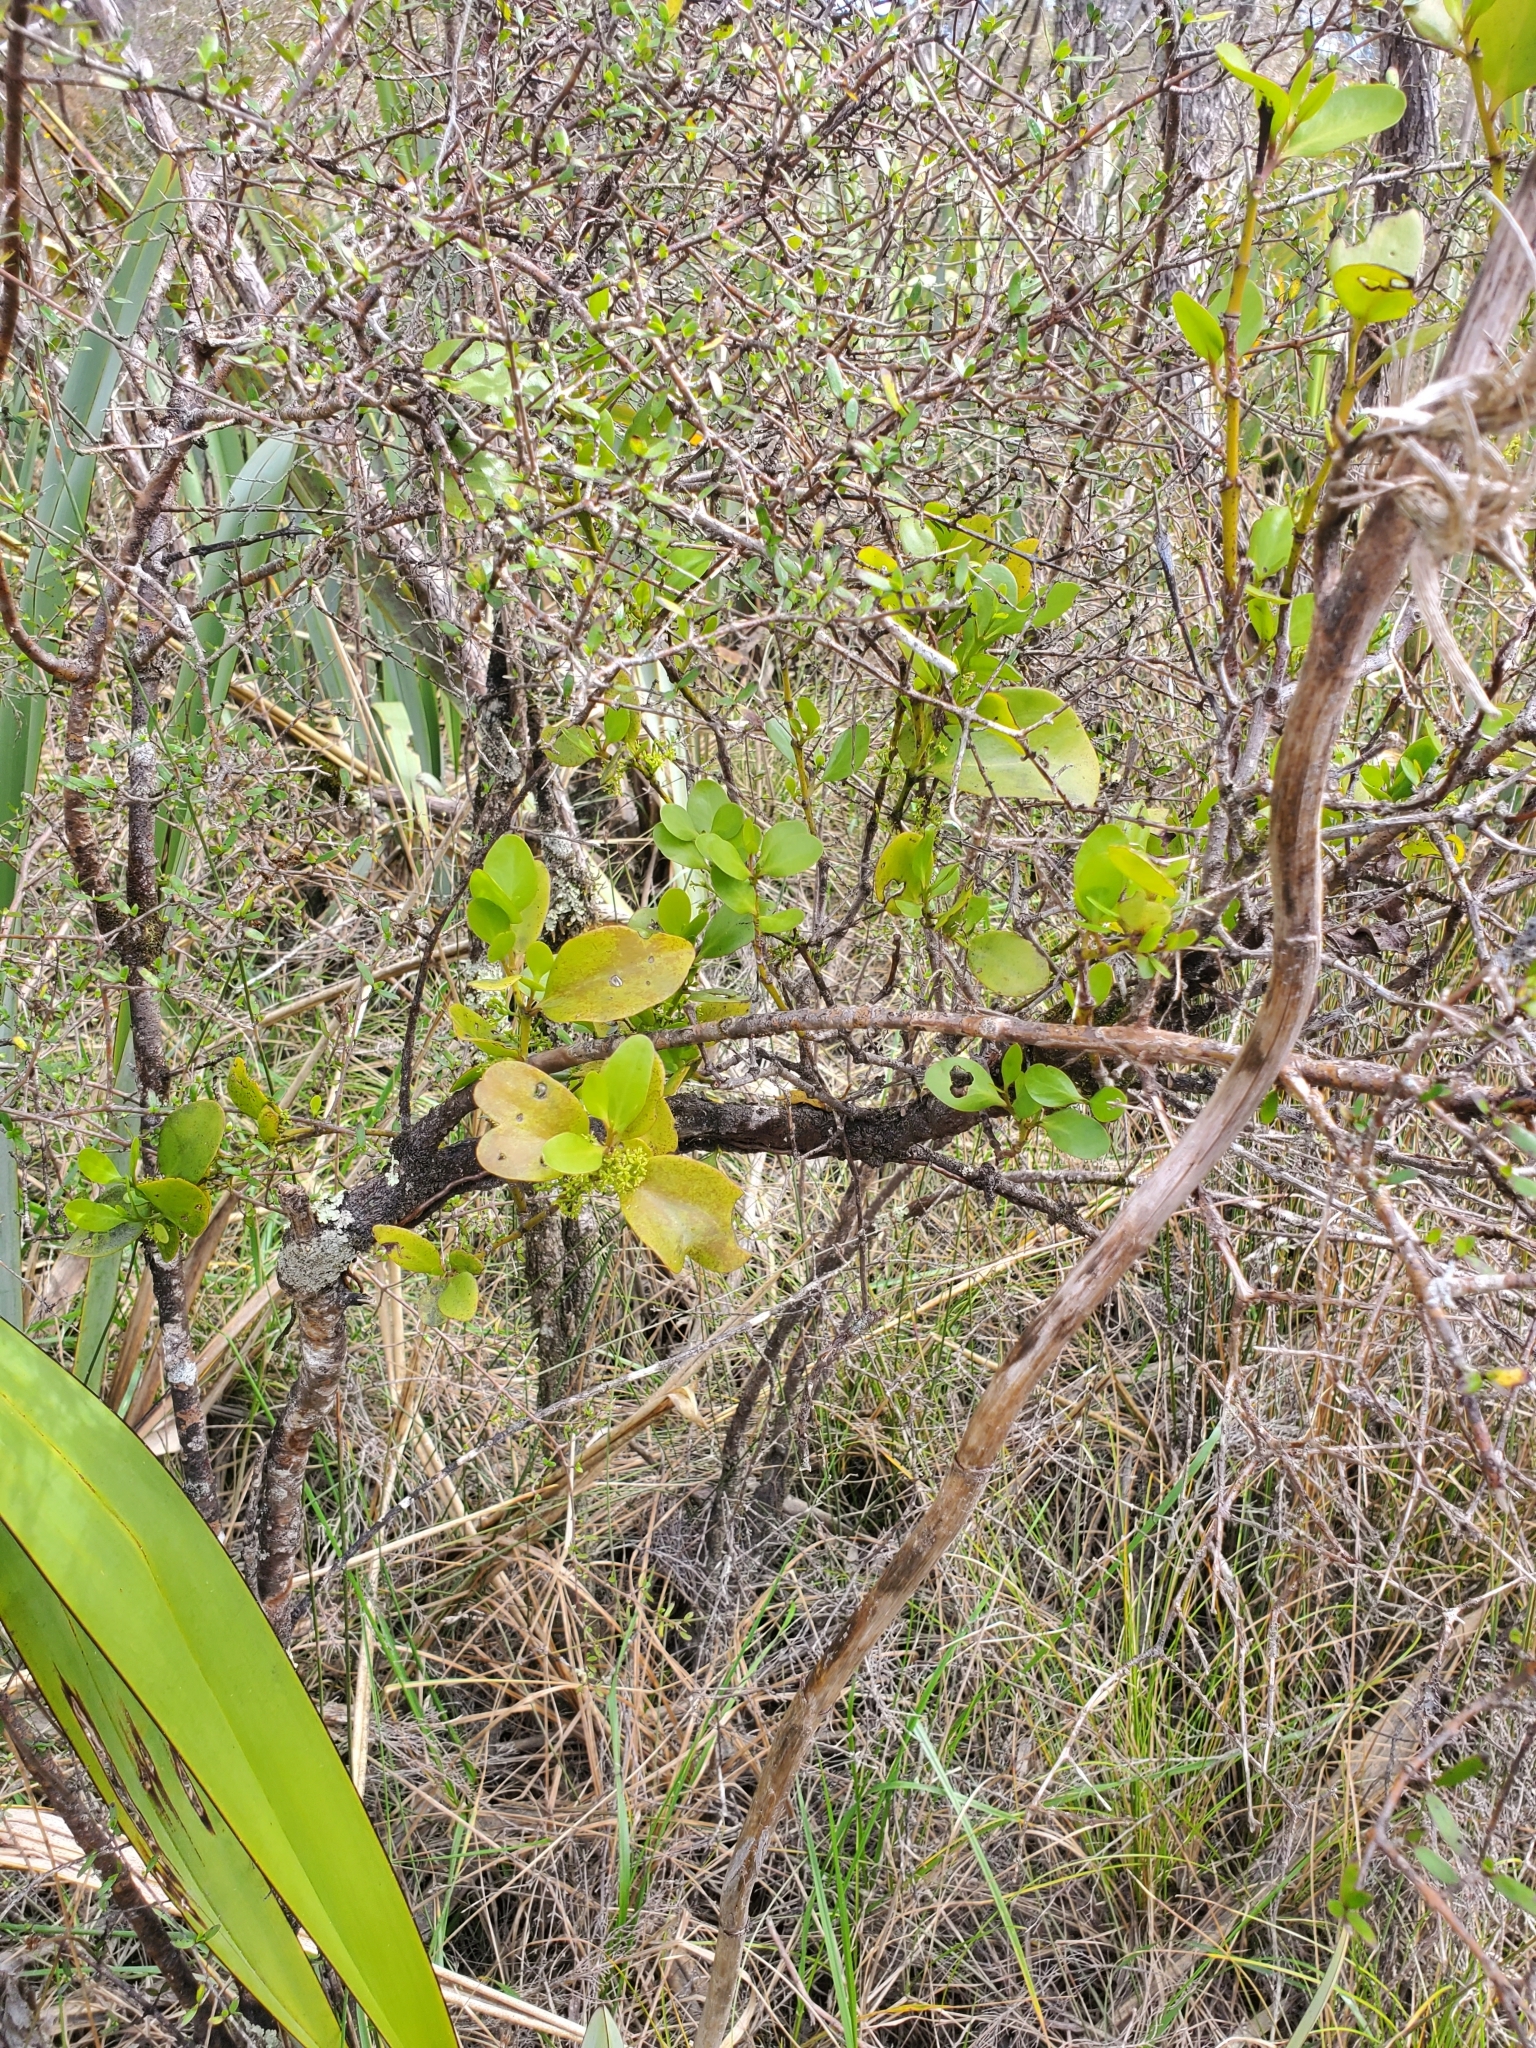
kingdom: Plantae
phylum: Tracheophyta
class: Magnoliopsida
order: Santalales
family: Loranthaceae
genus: Ileostylus
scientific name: Ileostylus micranthus
